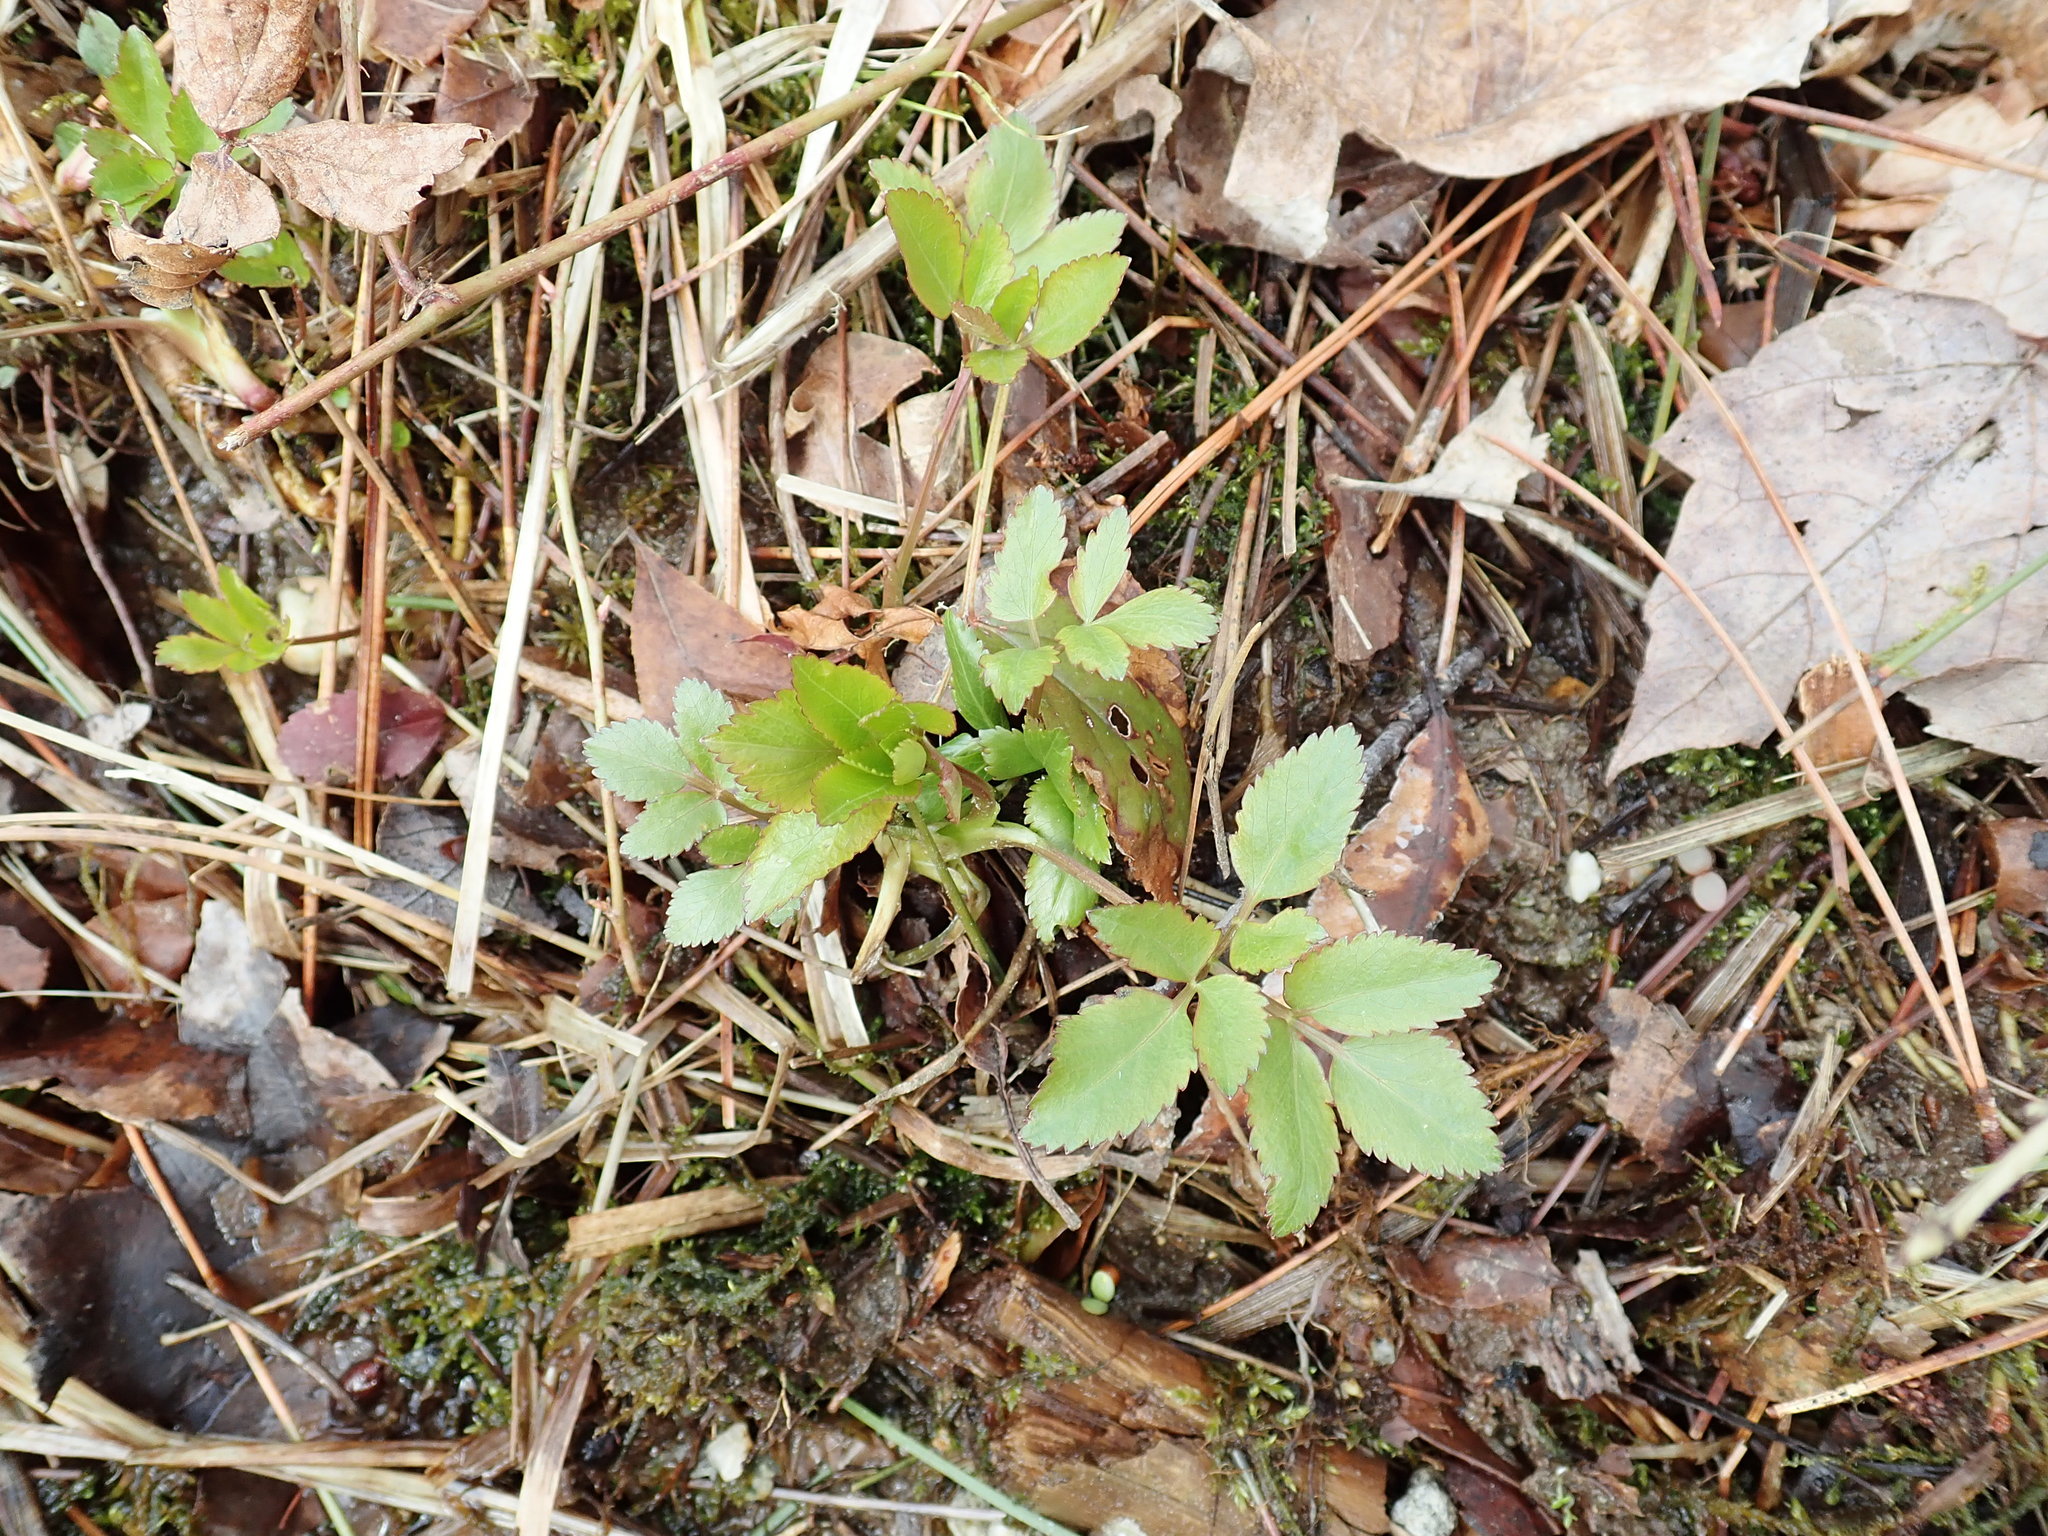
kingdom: Plantae
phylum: Tracheophyta
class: Magnoliopsida
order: Apiales
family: Apiaceae
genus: Zizia
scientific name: Zizia aurea
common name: Golden alexanders
